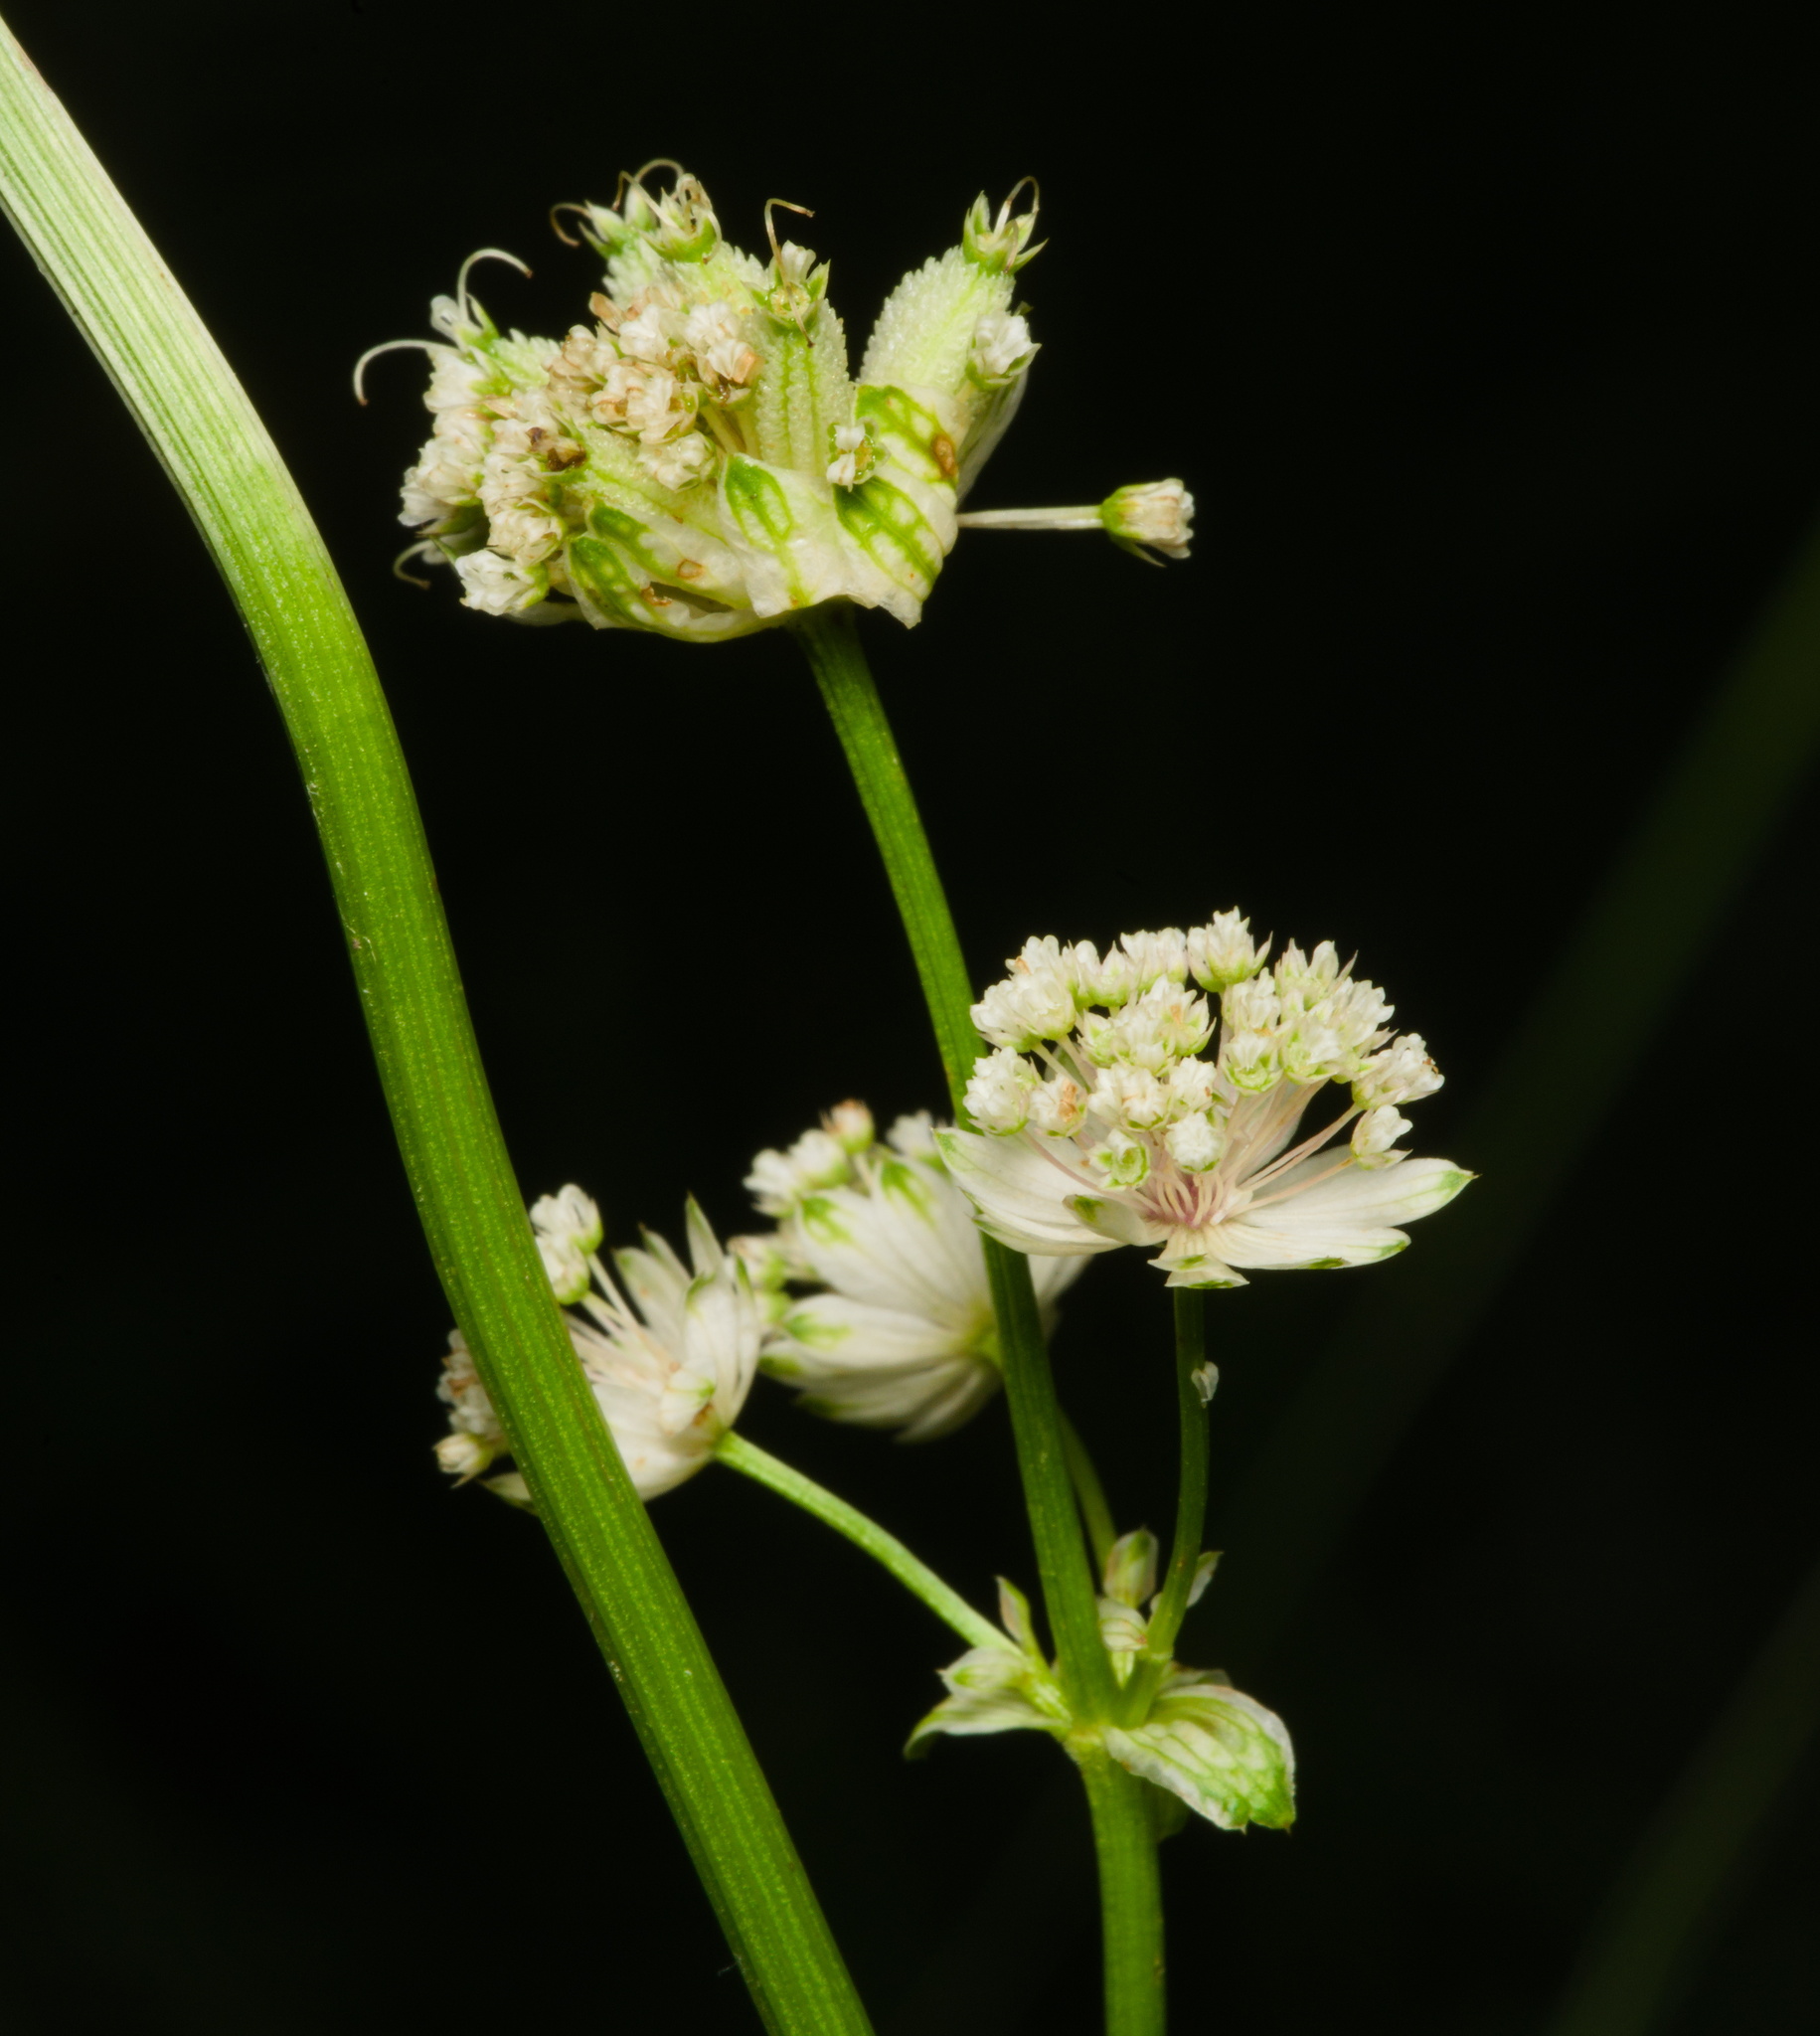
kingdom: Animalia
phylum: Arthropoda
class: Insecta
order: Lepidoptera
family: Noctuidae
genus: Melanchra
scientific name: Melanchra persicariae
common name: Dot moth
